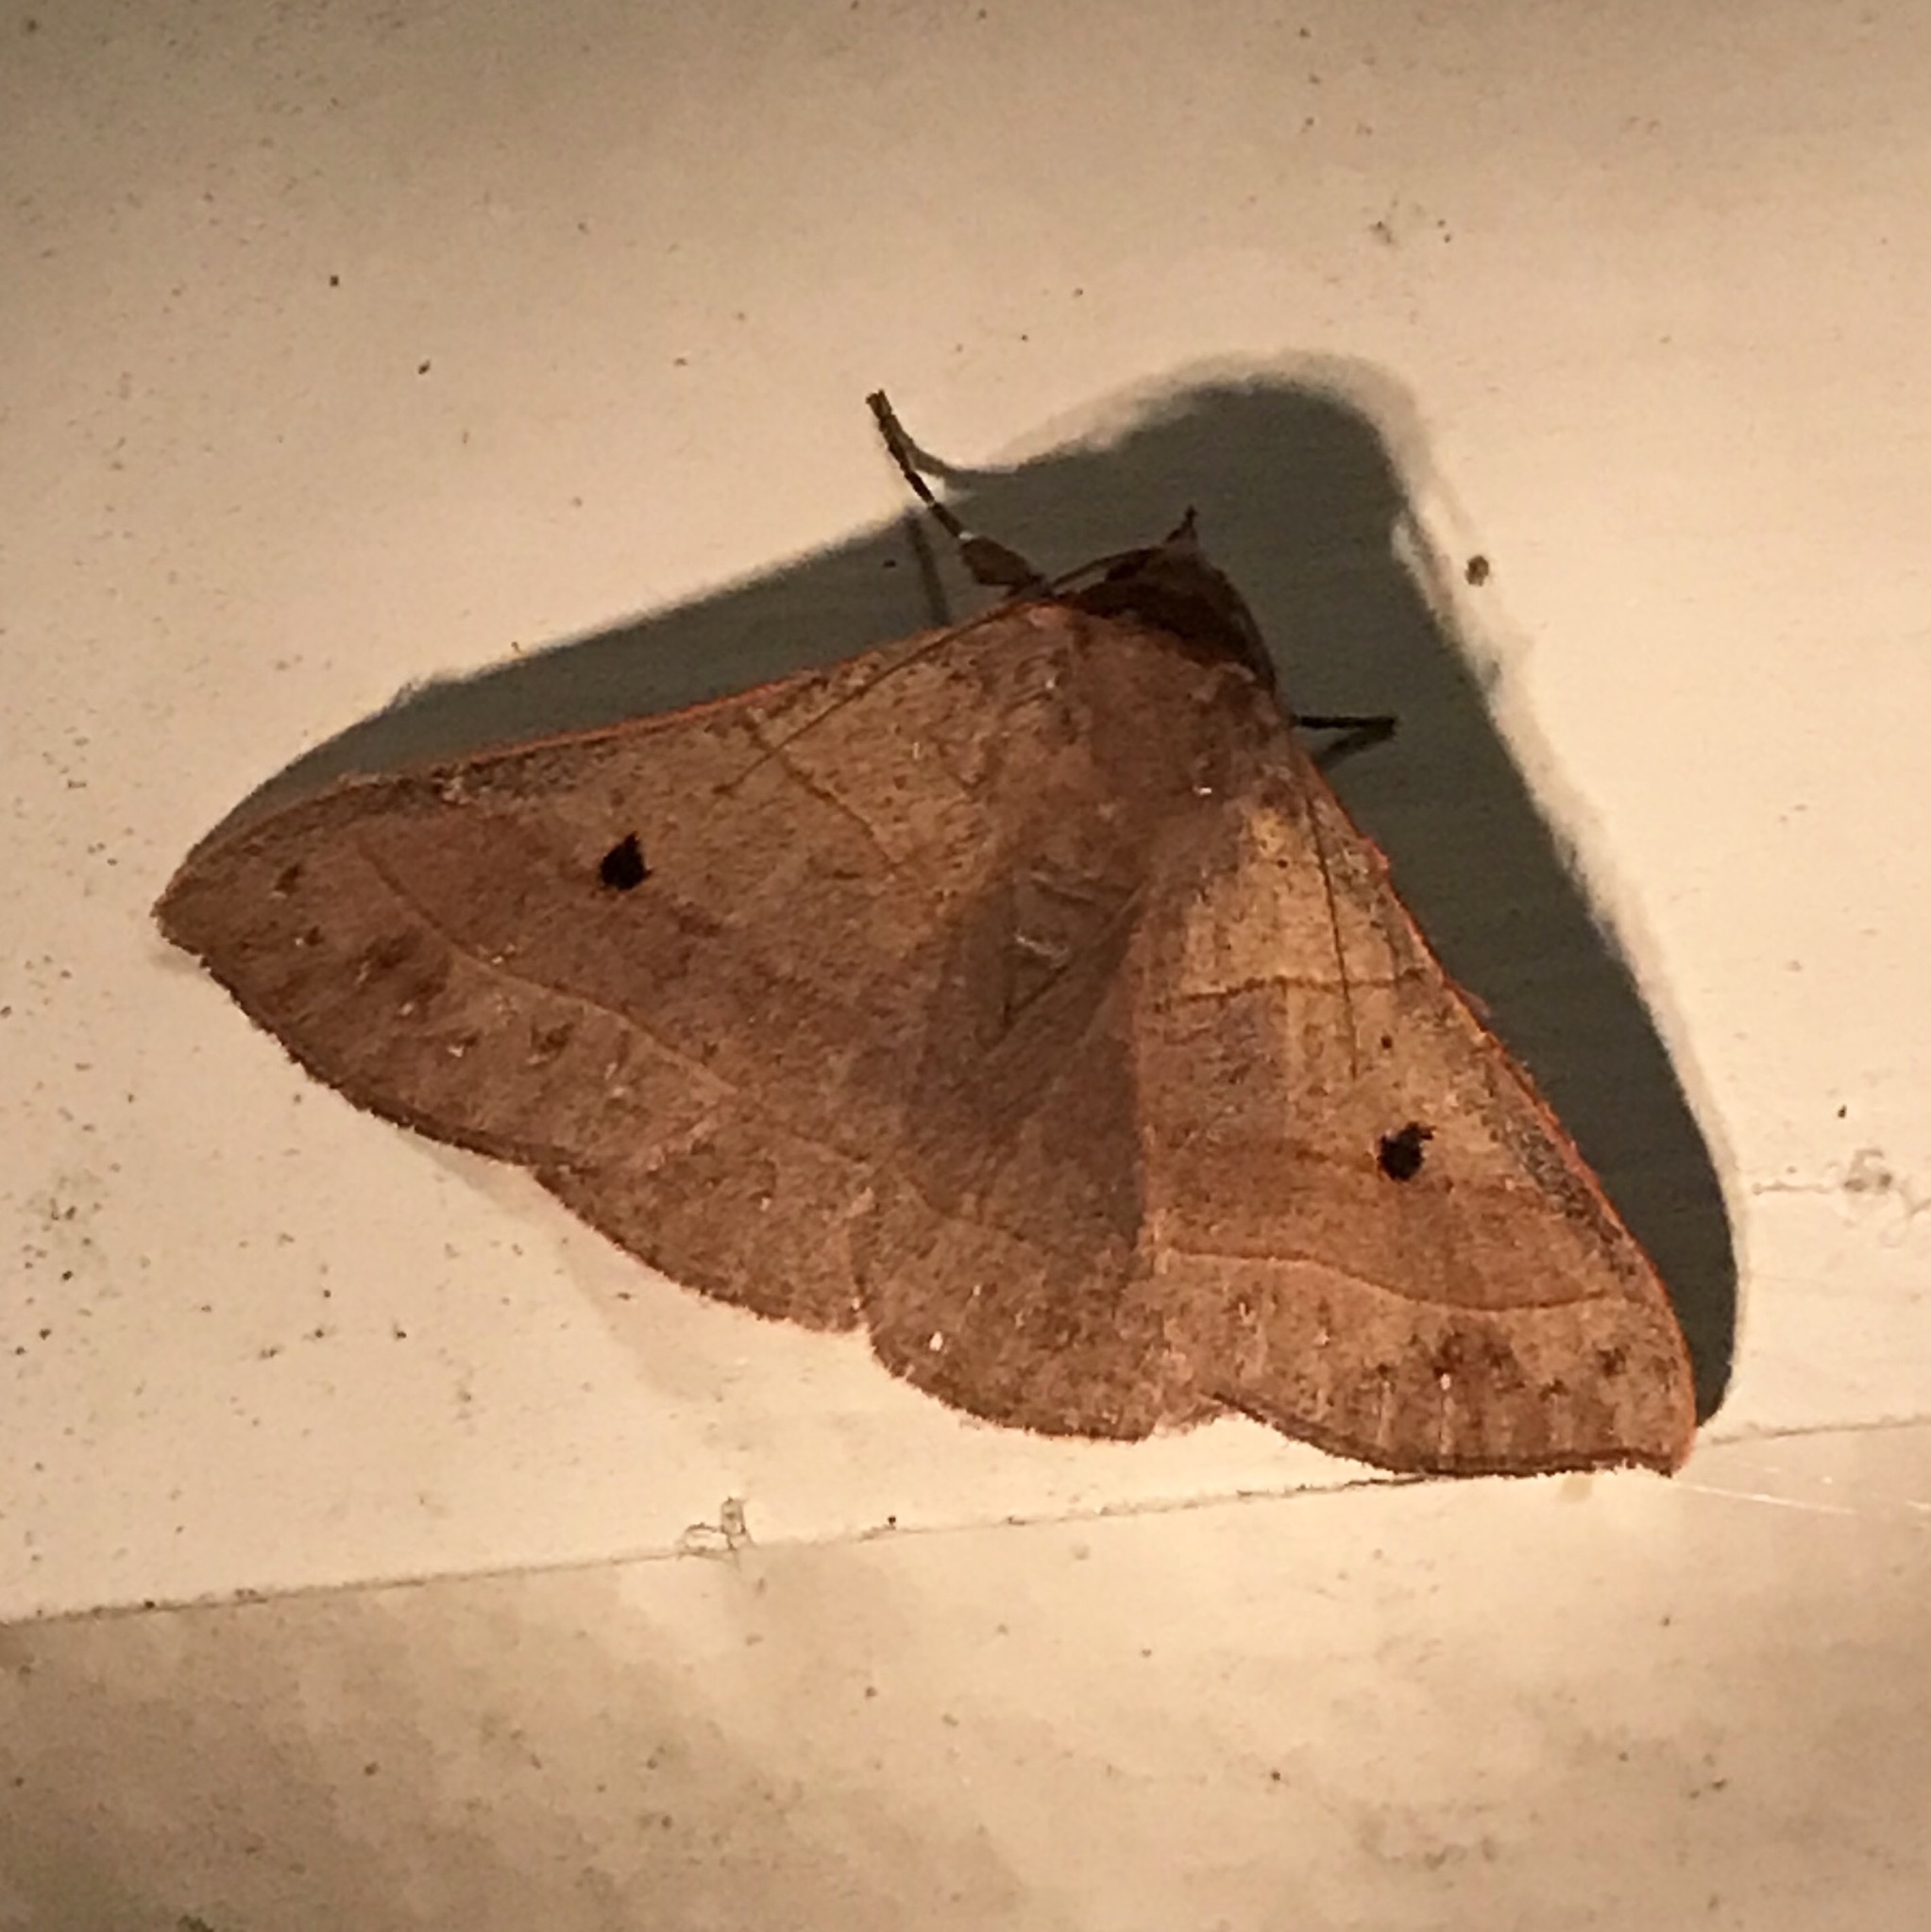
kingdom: Animalia
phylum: Arthropoda
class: Insecta
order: Lepidoptera
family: Erebidae
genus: Panopoda
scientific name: Panopoda rufimargo
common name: Red-lined panopoda moth
